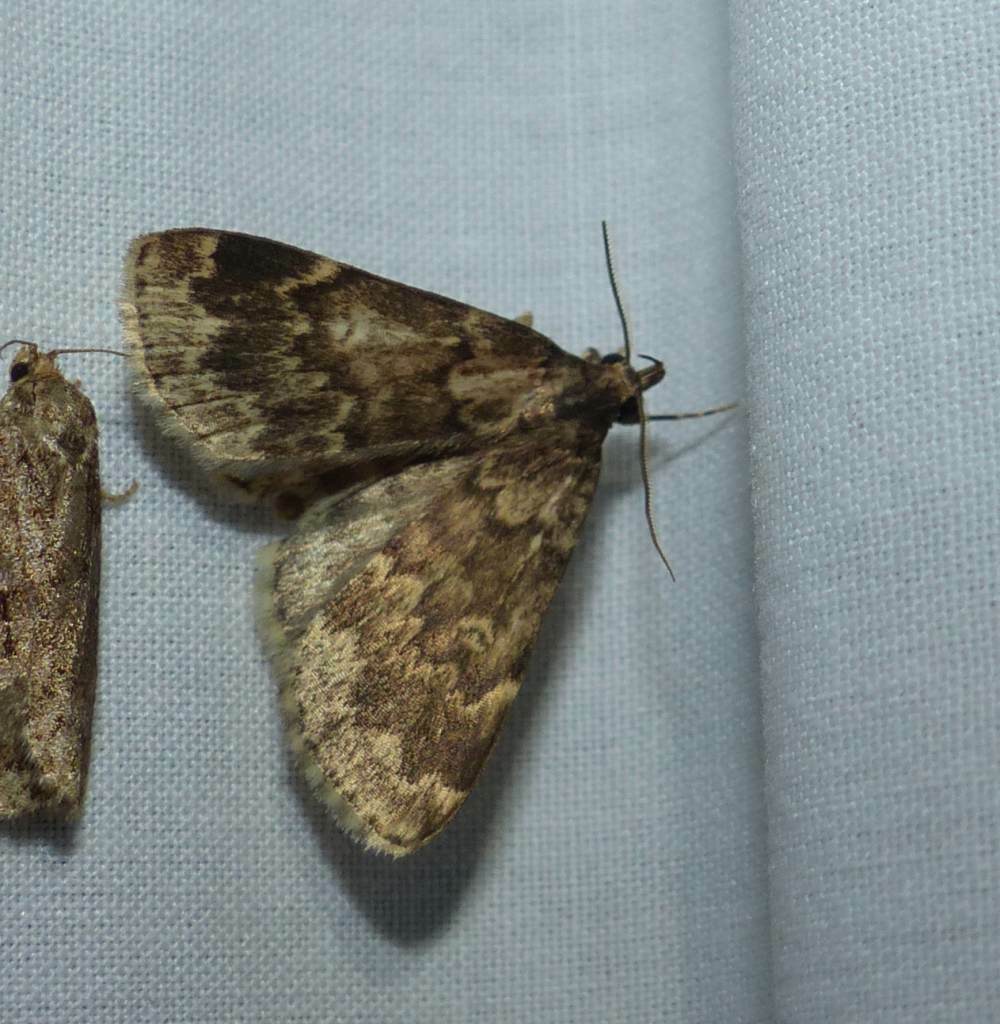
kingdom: Animalia
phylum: Arthropoda
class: Insecta
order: Lepidoptera
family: Erebidae
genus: Idia
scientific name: Idia lubricalis
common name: Twin-striped tabby
